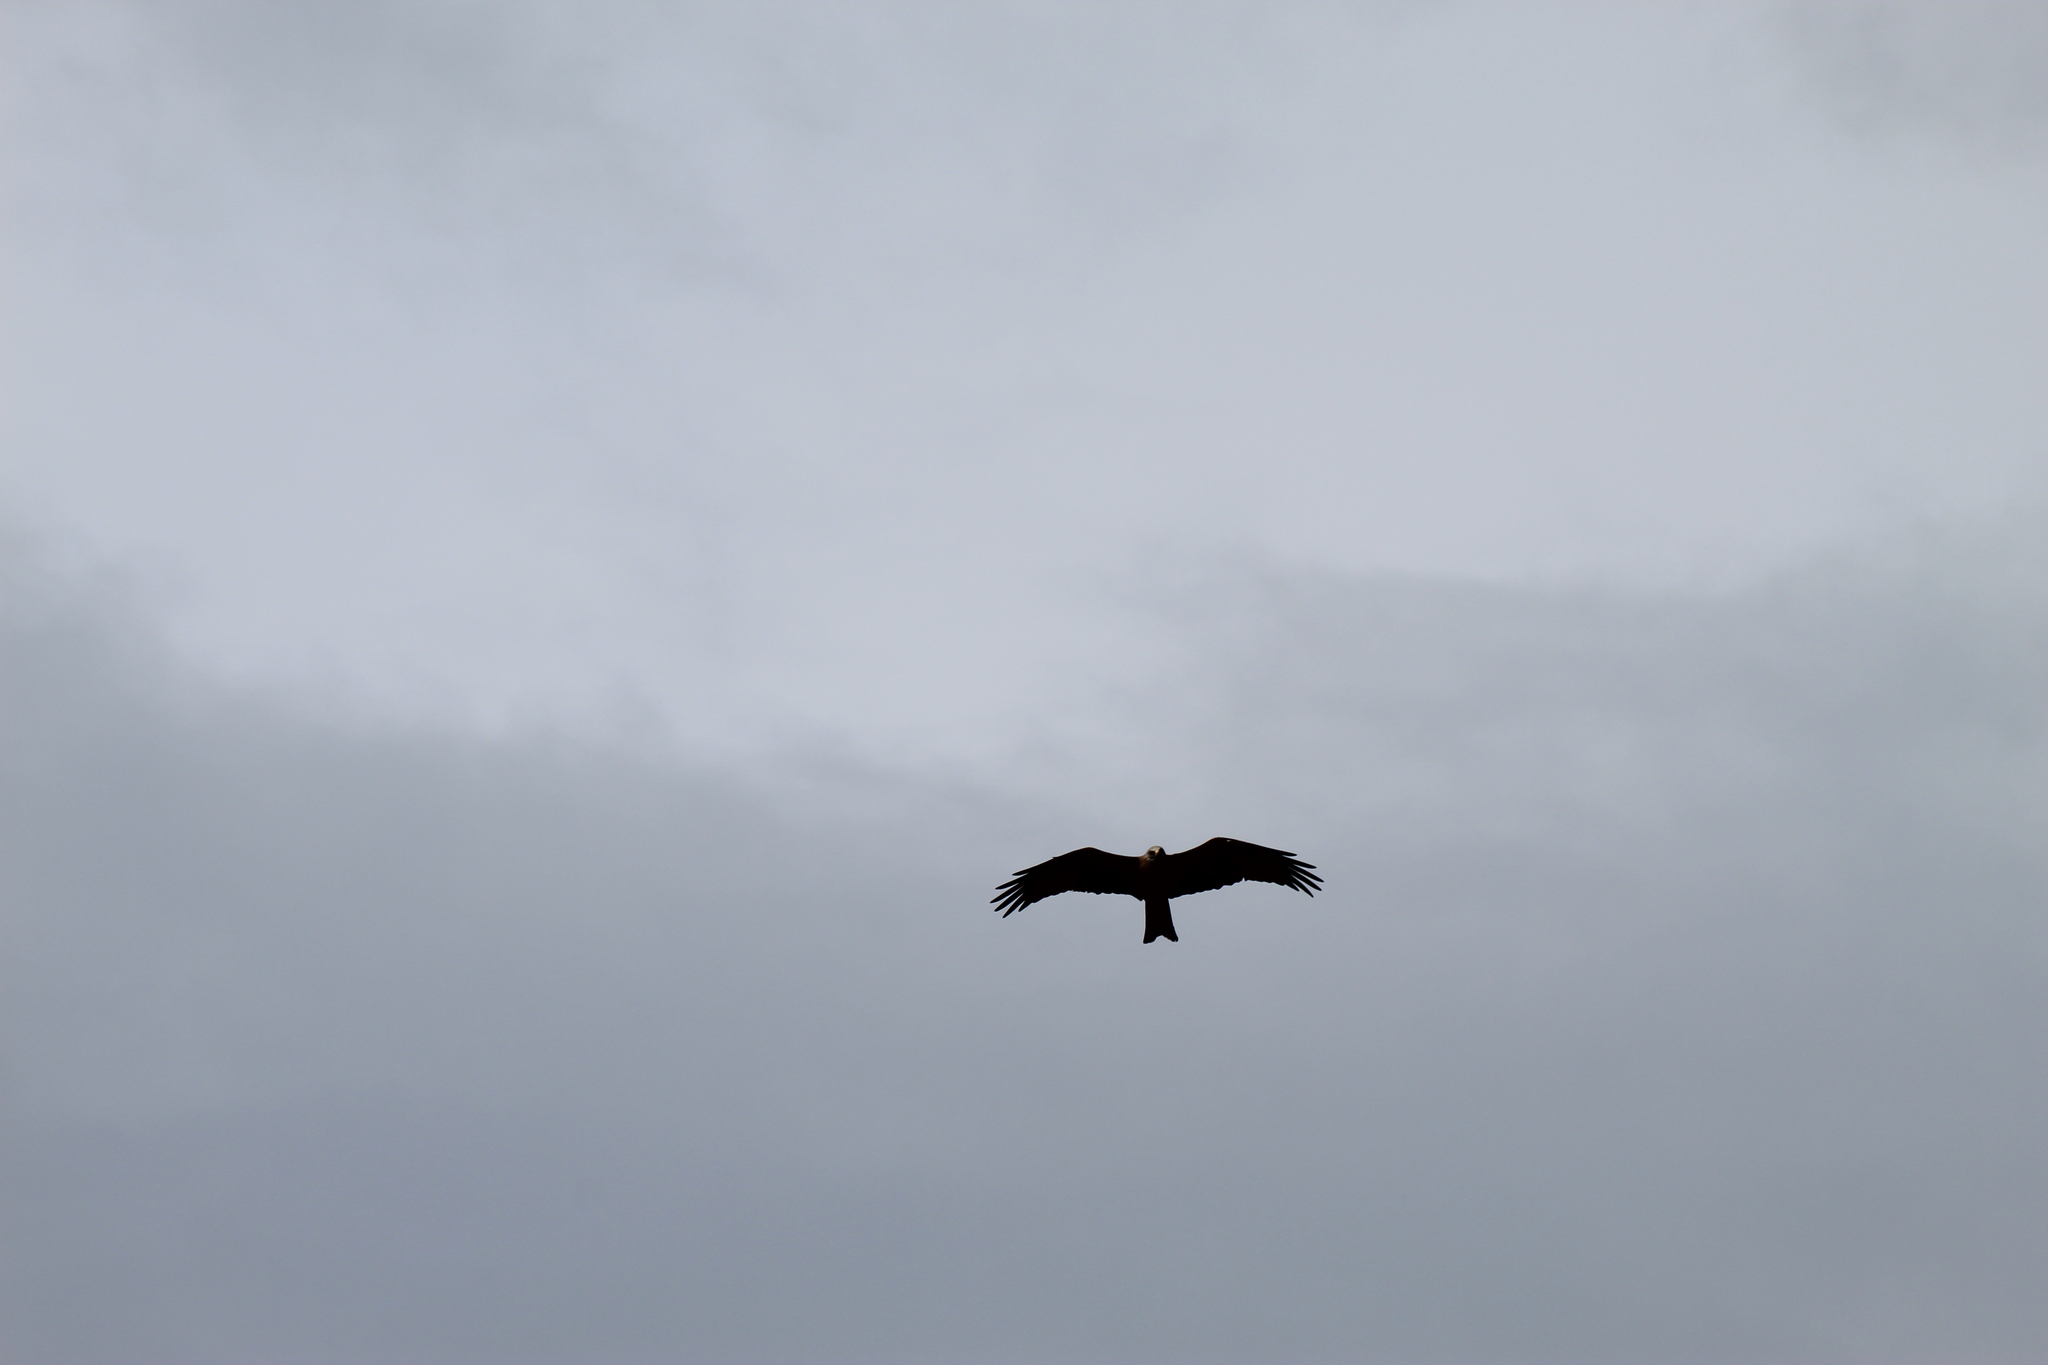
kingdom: Animalia
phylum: Chordata
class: Aves
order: Accipitriformes
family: Accipitridae
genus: Milvus
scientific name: Milvus migrans
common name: Black kite
